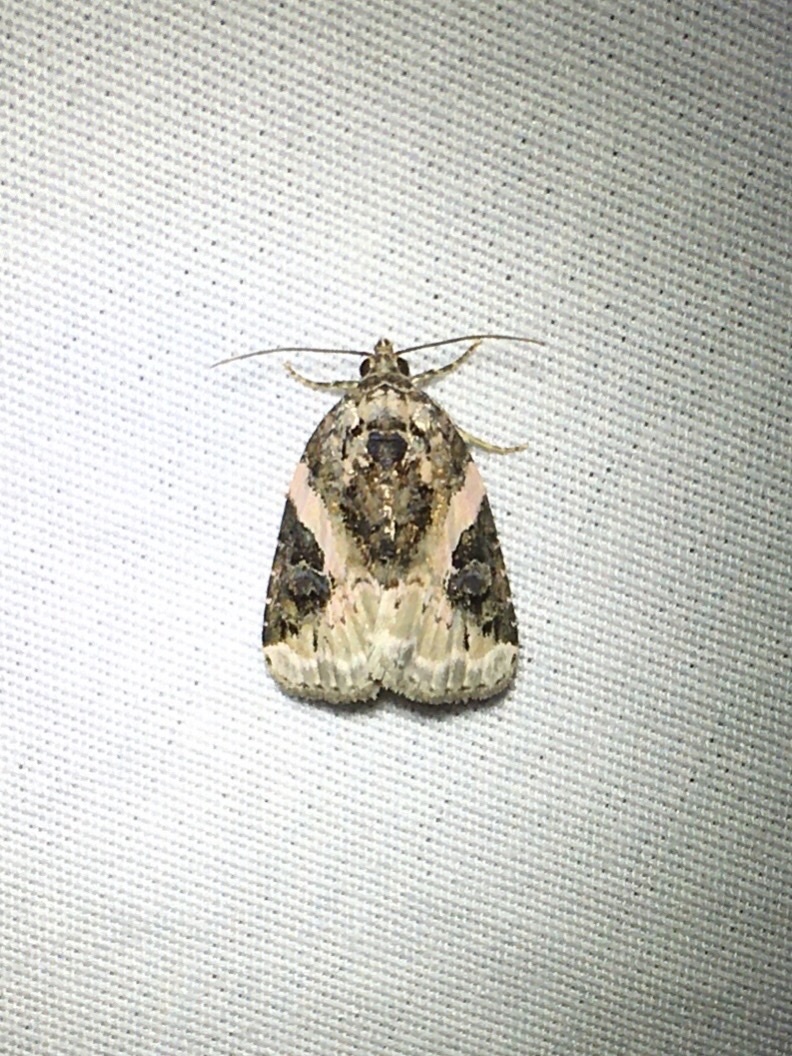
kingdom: Animalia
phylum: Arthropoda
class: Insecta
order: Lepidoptera
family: Noctuidae
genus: Pseudeustrotia
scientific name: Pseudeustrotia carneola
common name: Pink-barred lithacodia moth
